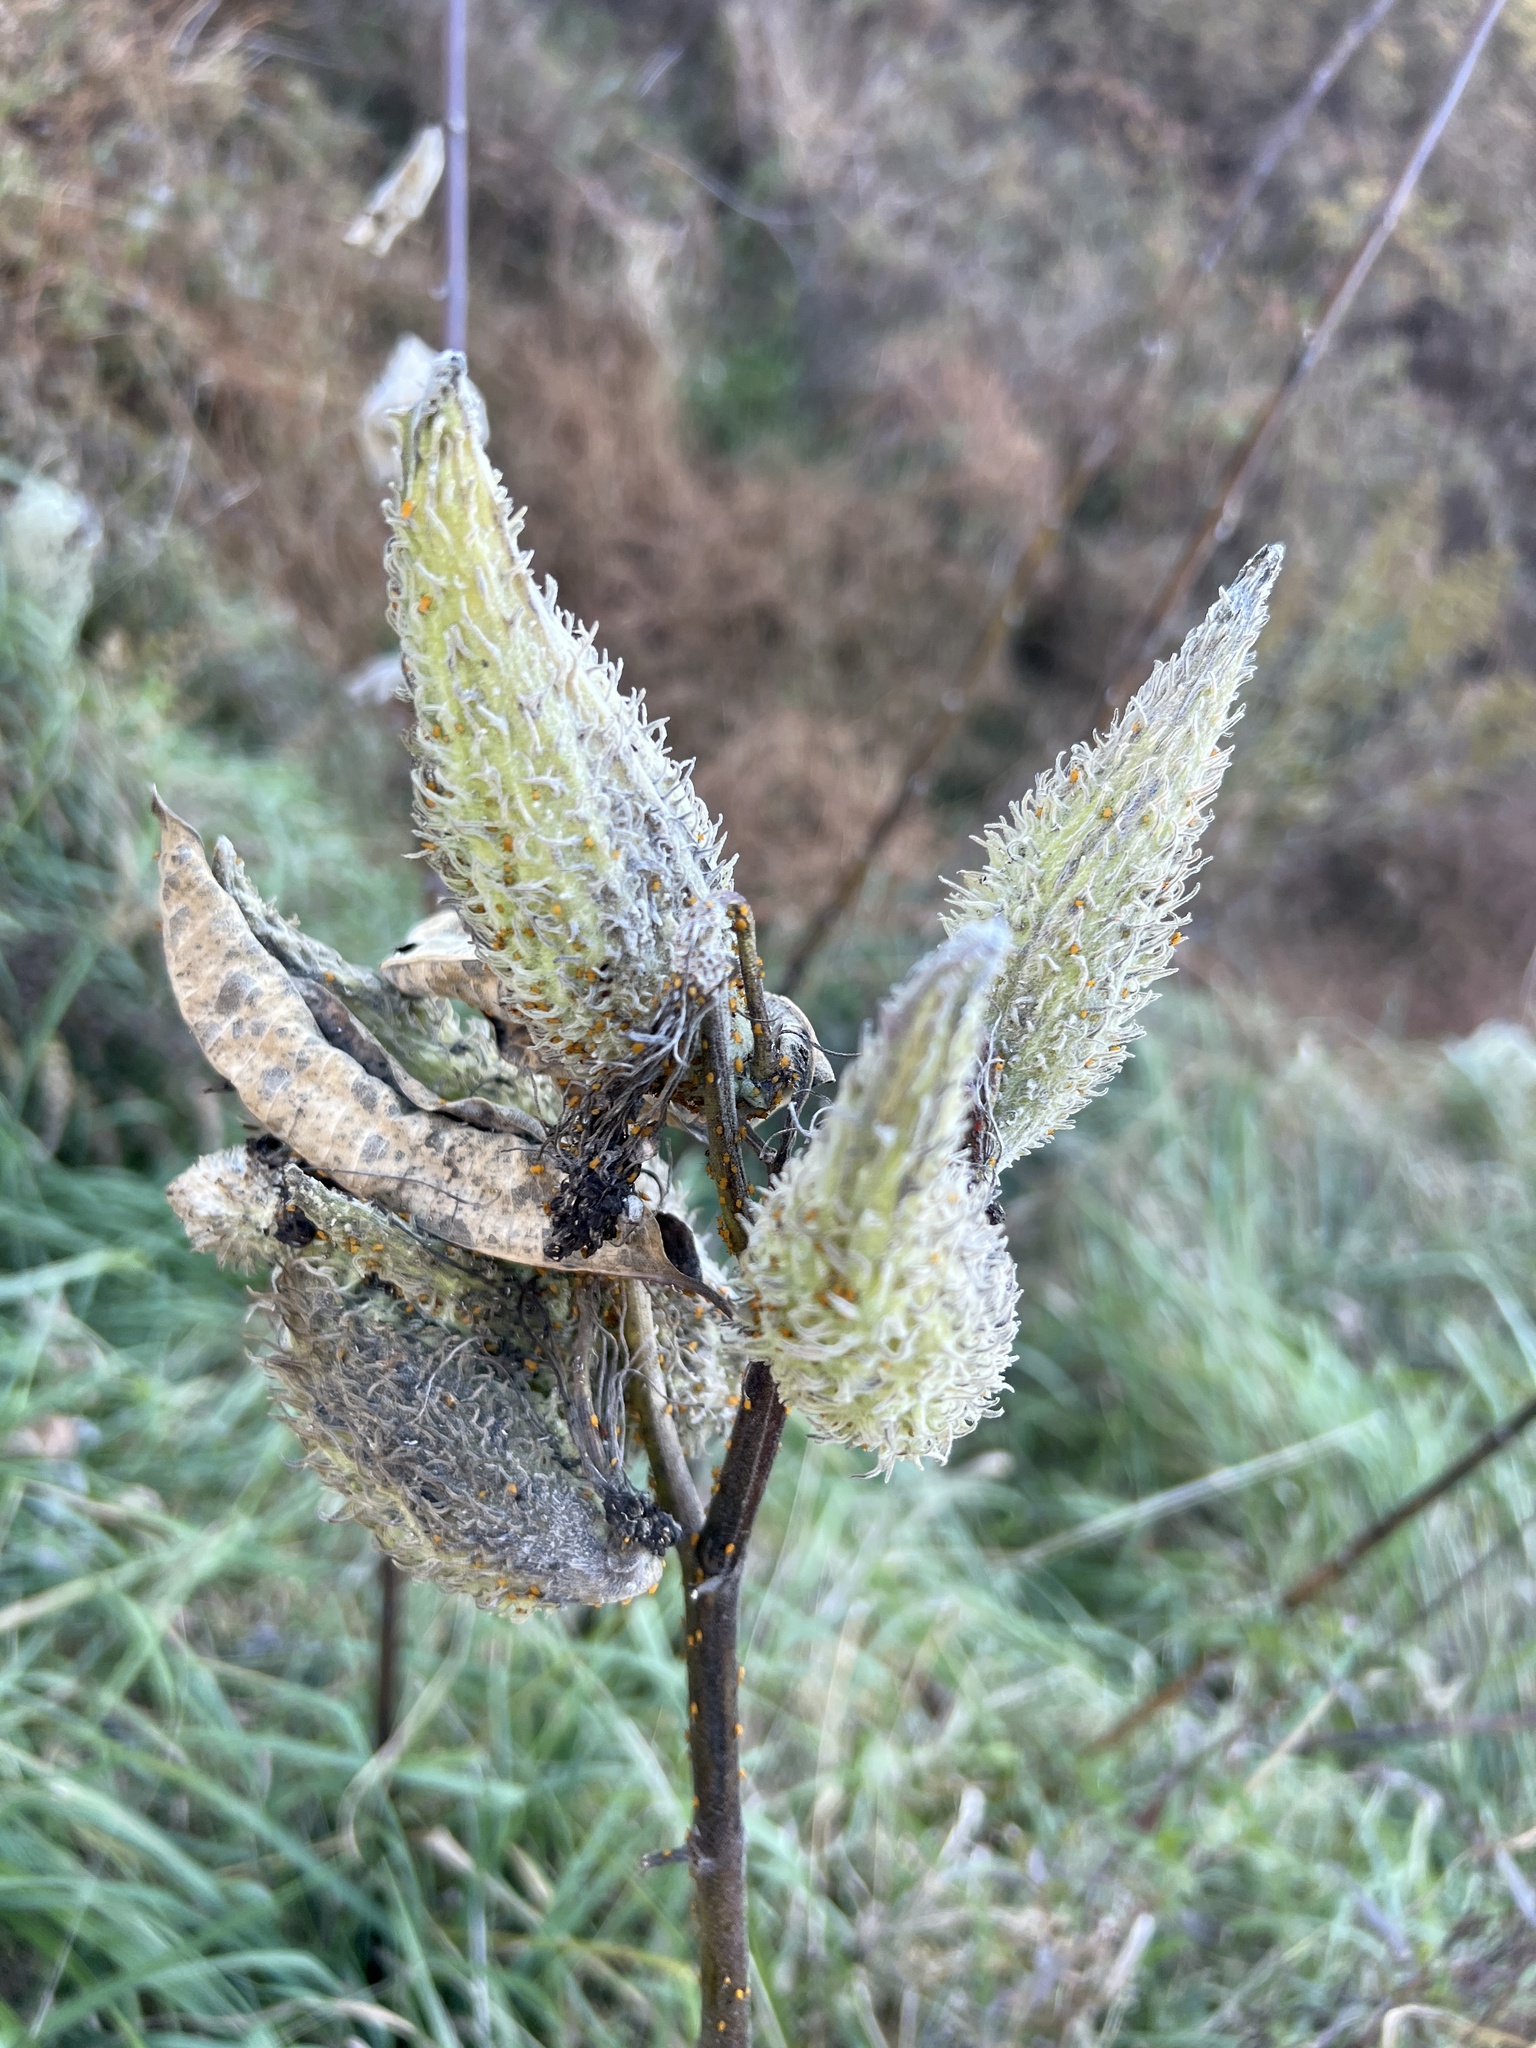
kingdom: Plantae
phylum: Tracheophyta
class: Magnoliopsida
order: Gentianales
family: Apocynaceae
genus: Asclepias
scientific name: Asclepias syriaca
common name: Common milkweed
